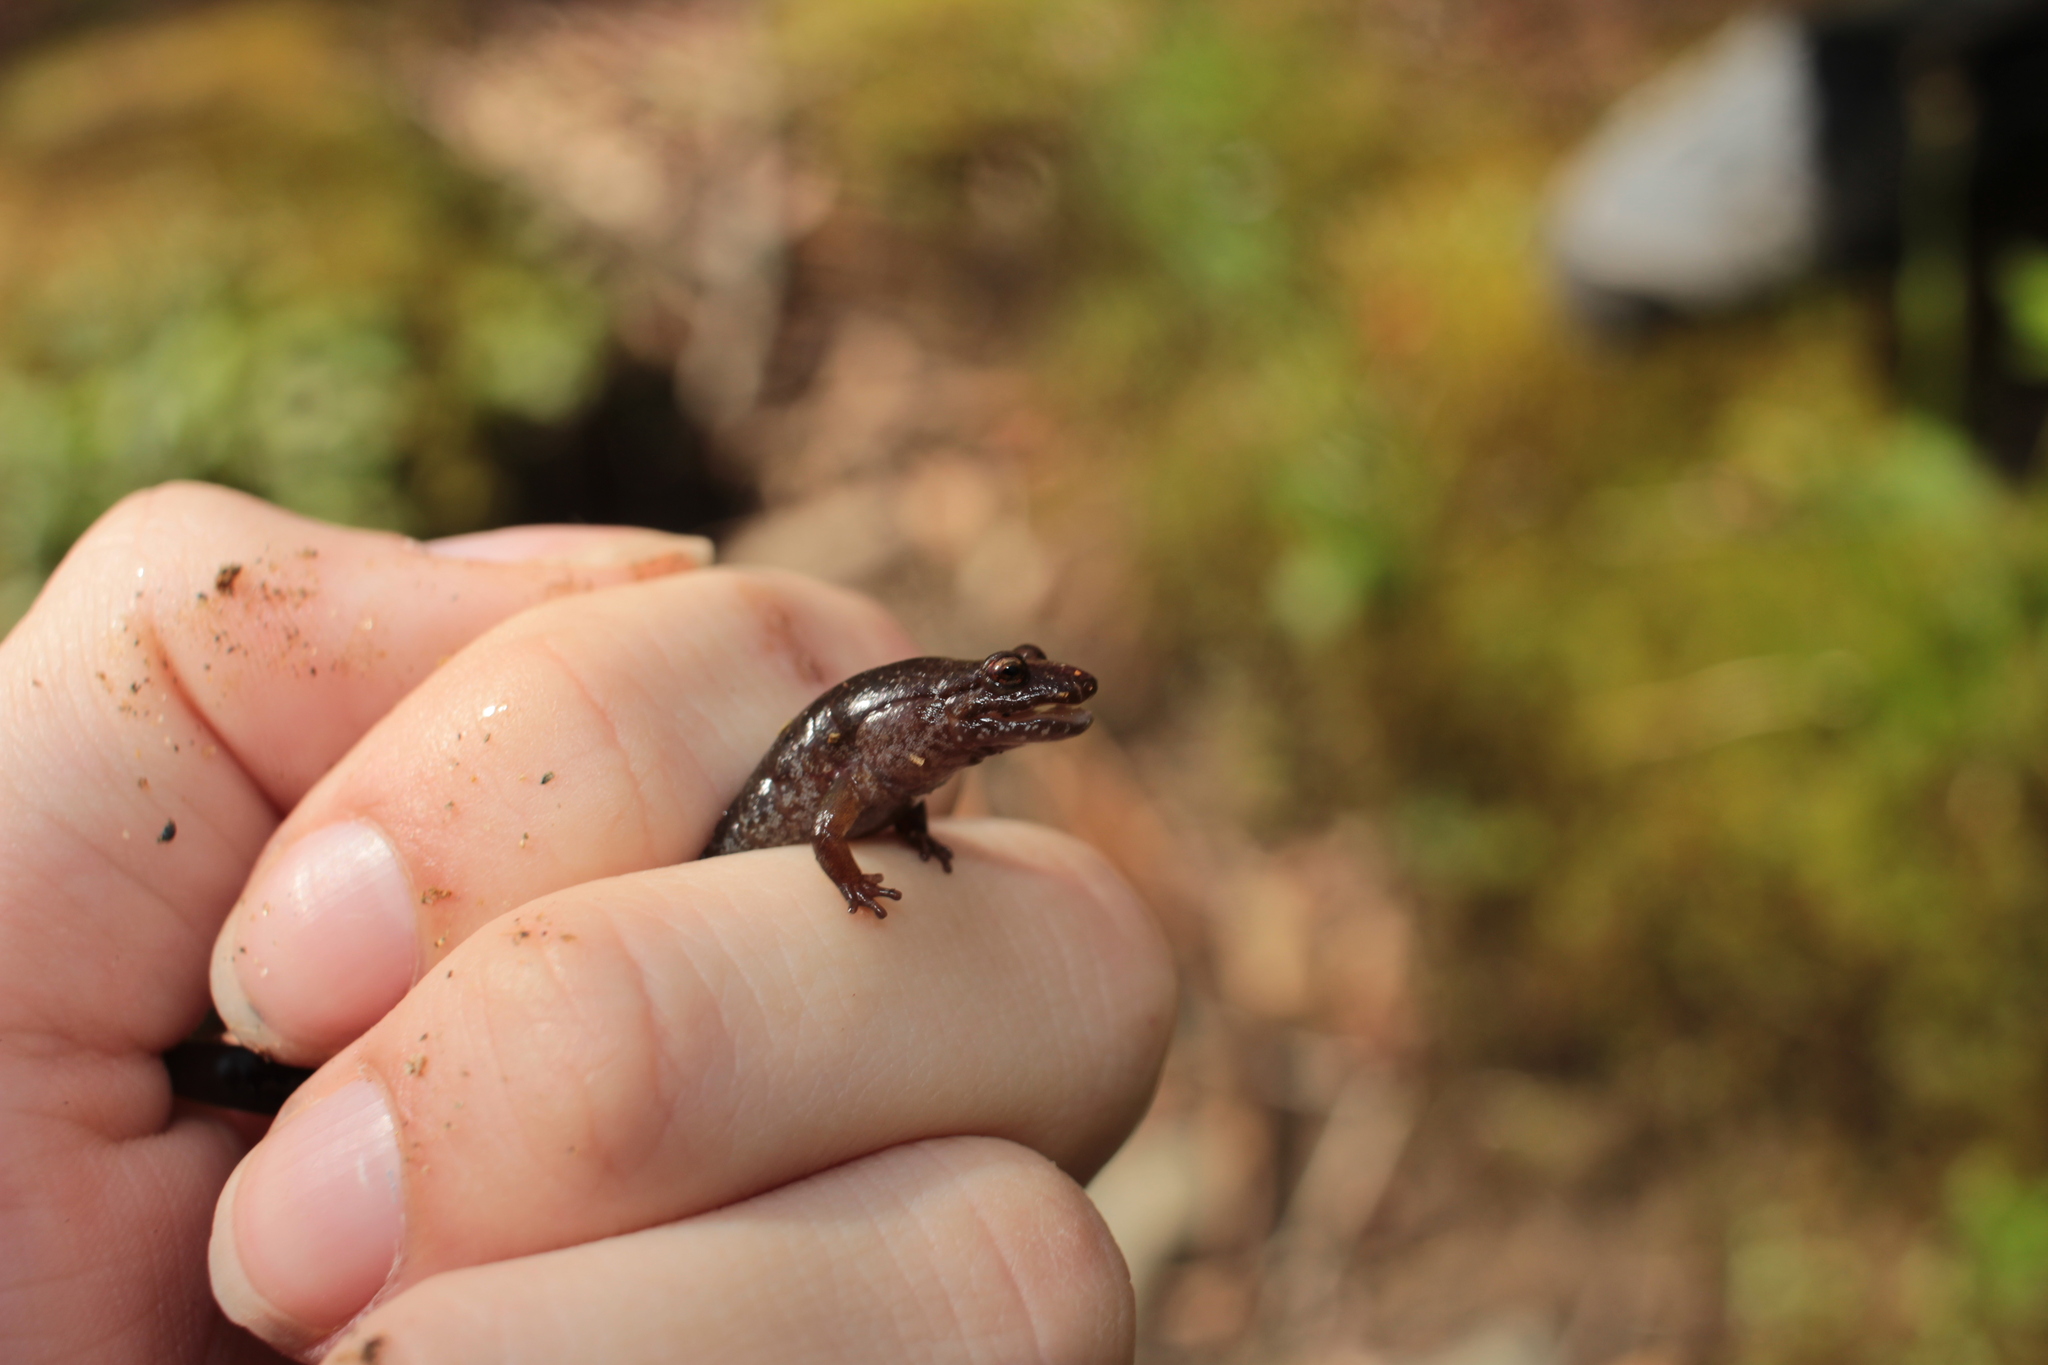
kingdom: Animalia
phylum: Chordata
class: Amphibia
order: Caudata
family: Plethodontidae
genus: Desmognathus
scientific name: Desmognathus ocoee
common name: Ocoee salamander
